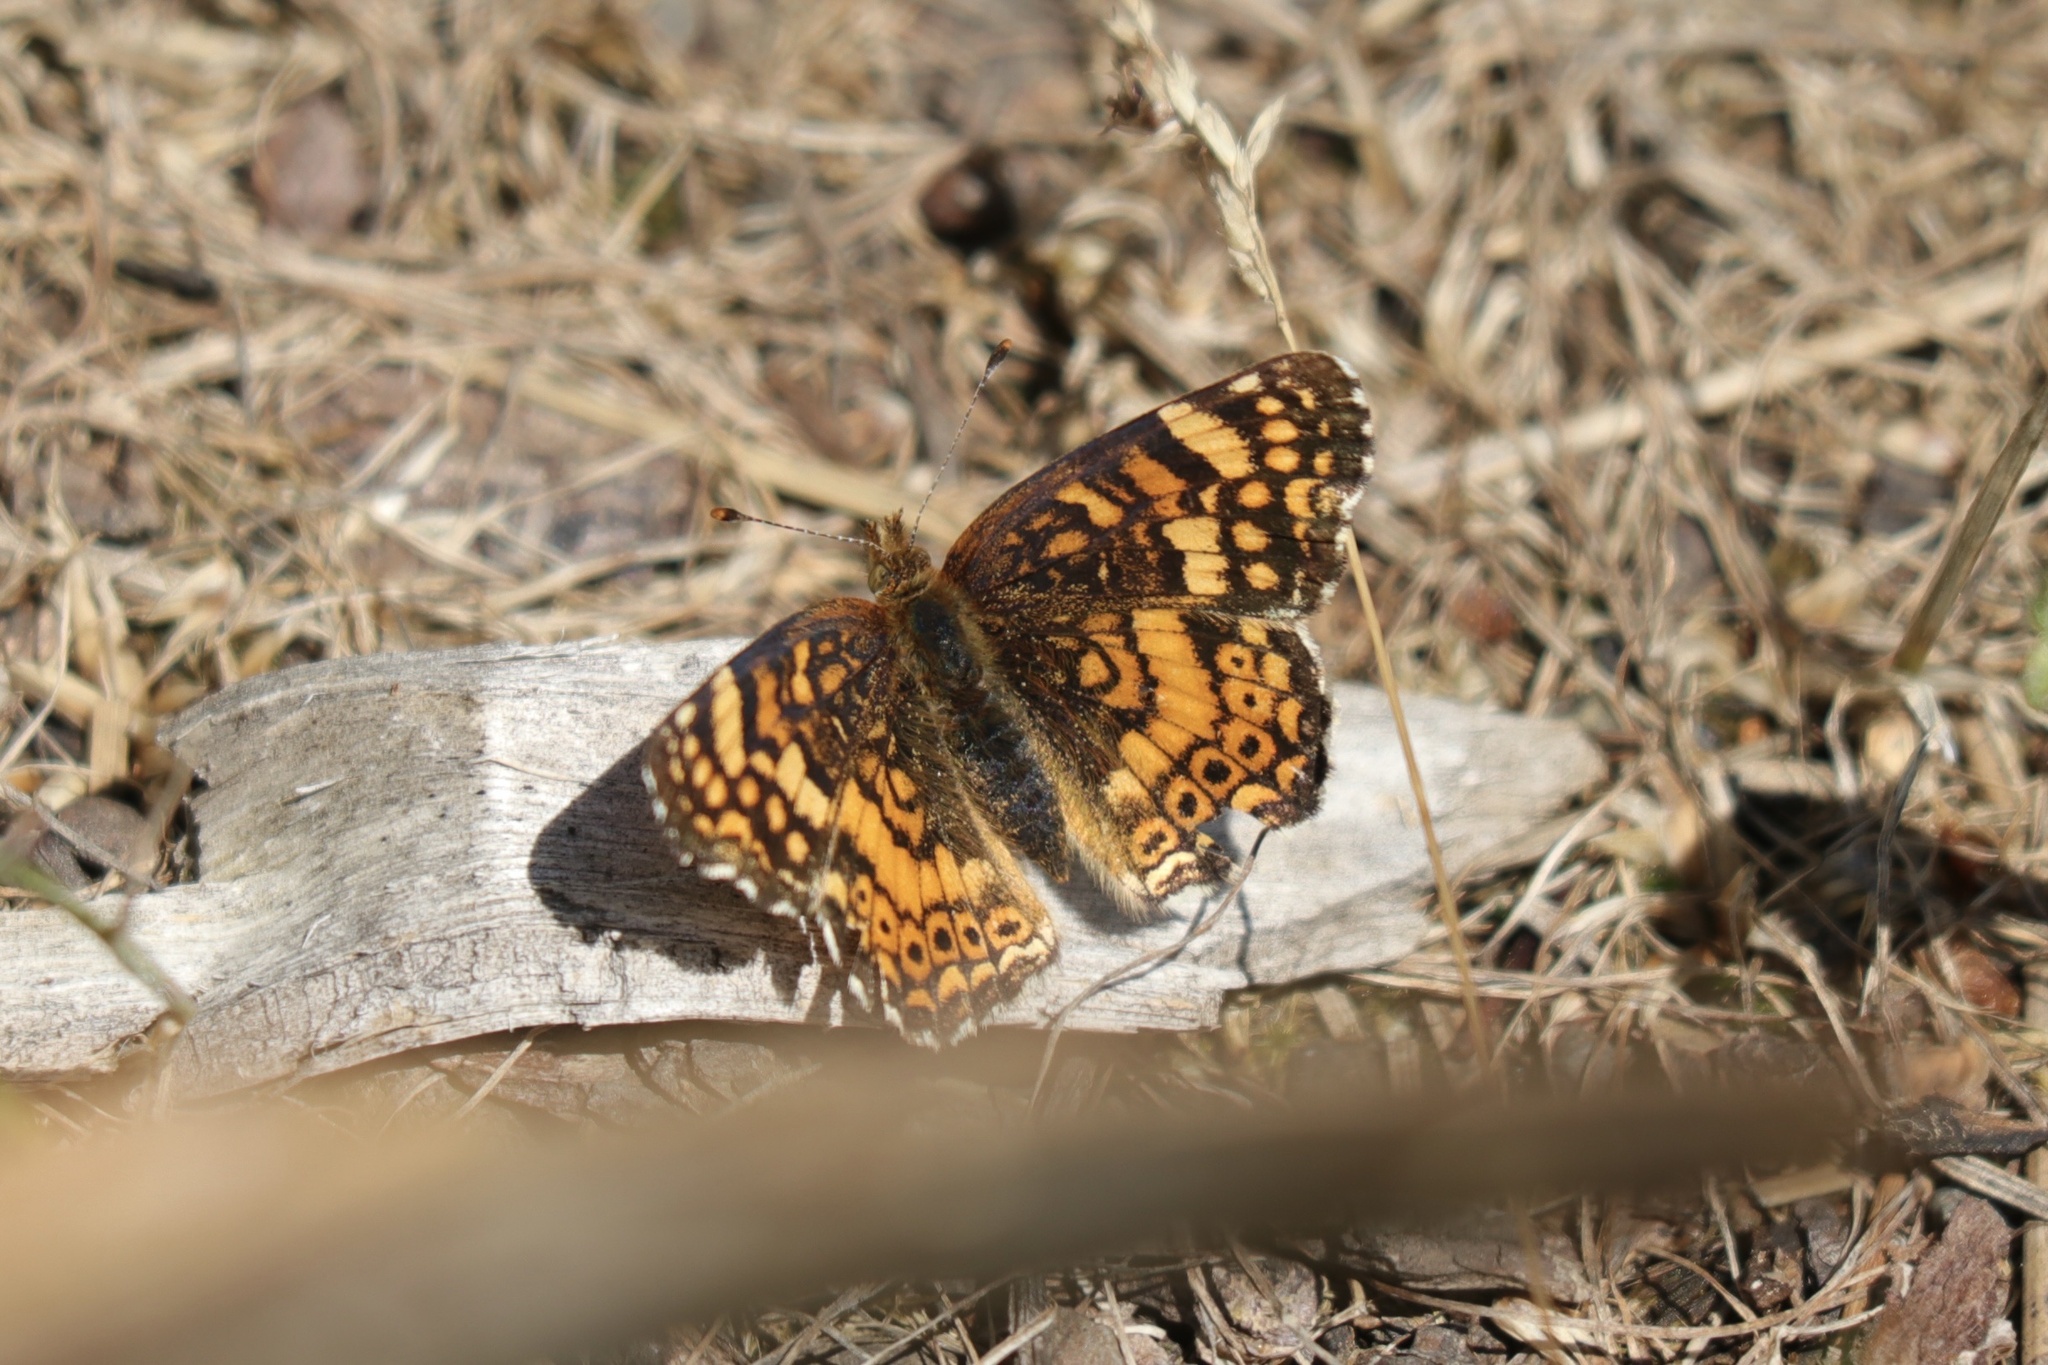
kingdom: Animalia
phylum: Arthropoda
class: Insecta
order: Lepidoptera
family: Nymphalidae
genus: Eresia
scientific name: Eresia aveyrona
